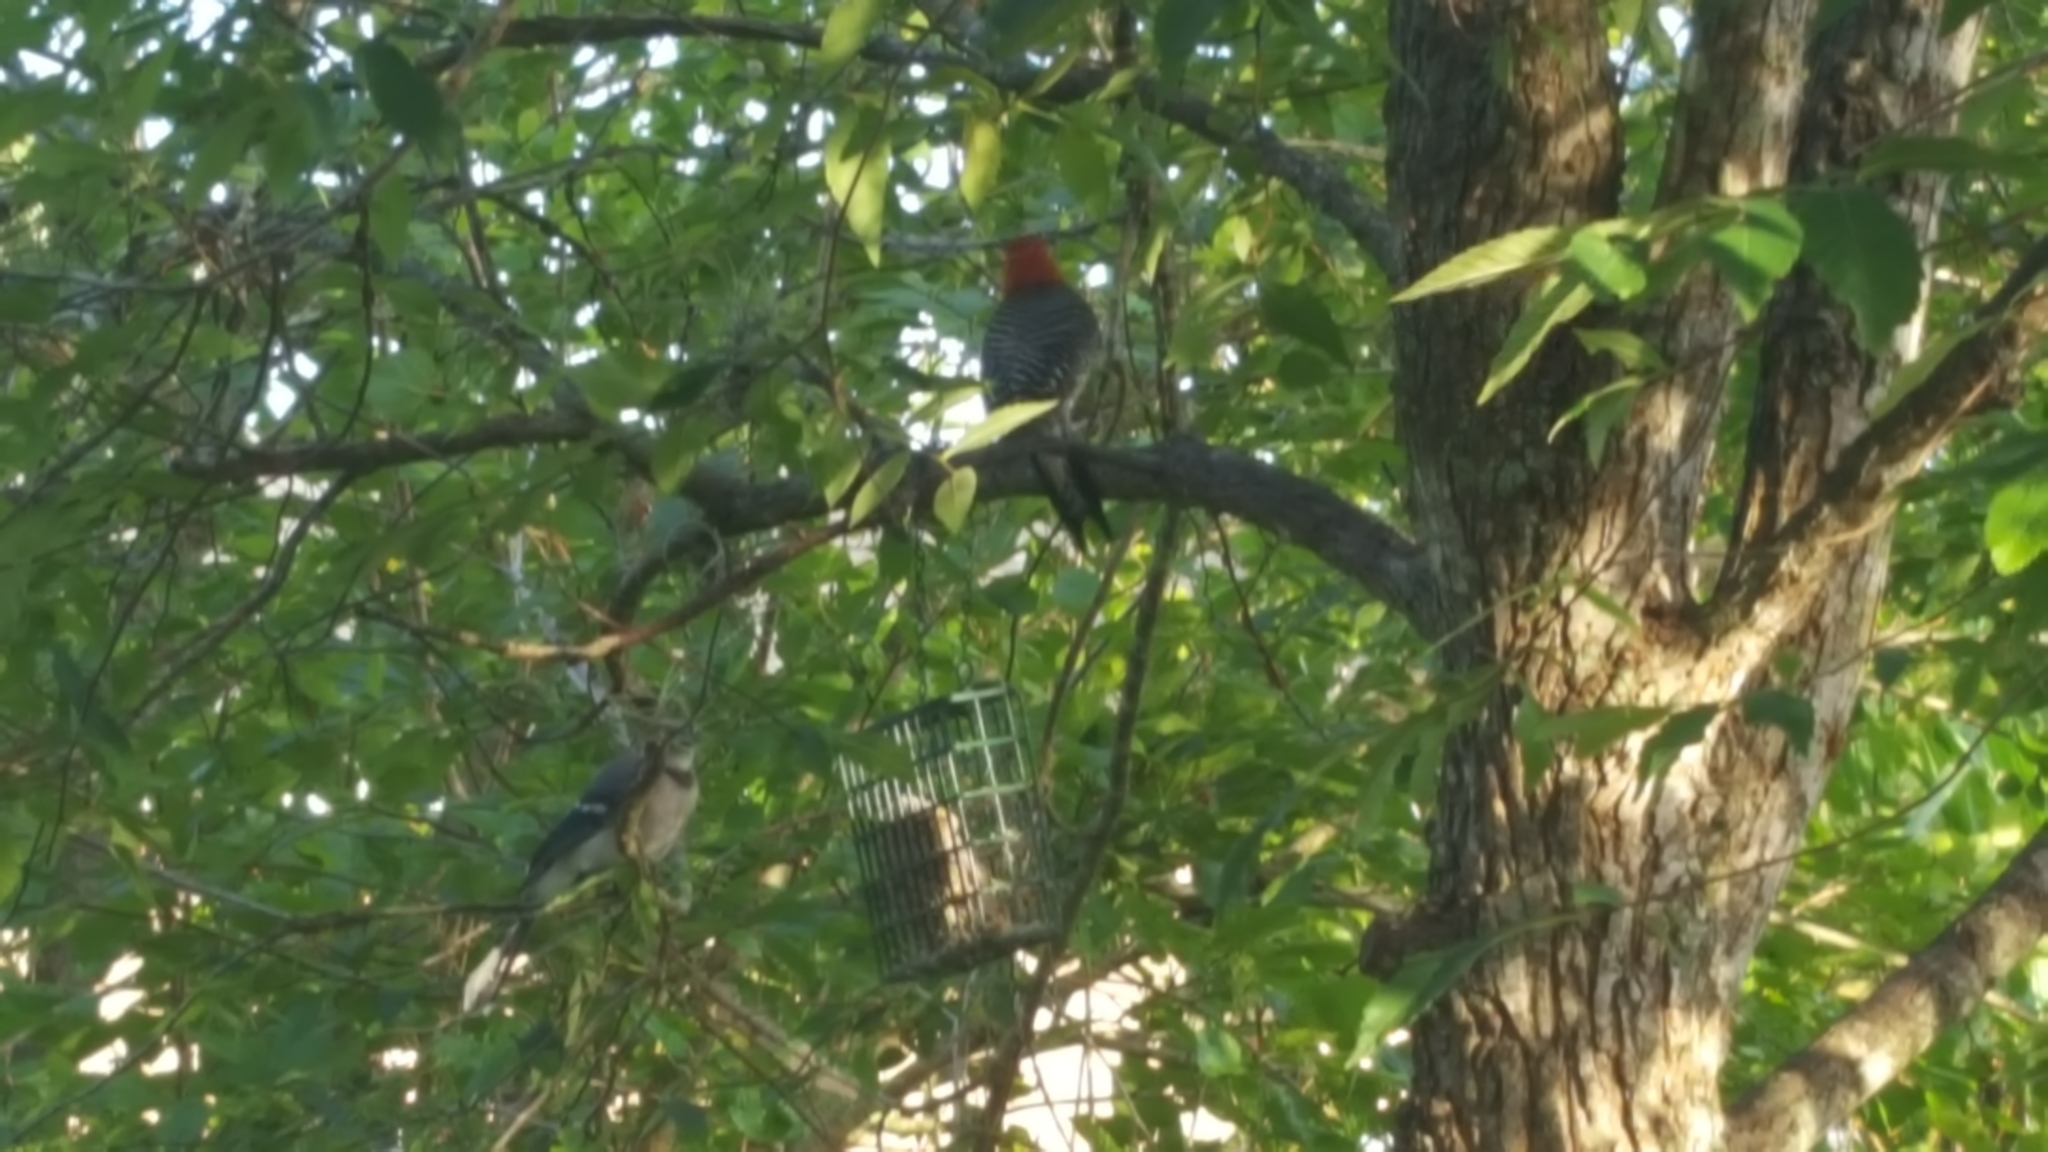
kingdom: Animalia
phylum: Chordata
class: Aves
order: Passeriformes
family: Corvidae
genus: Cyanocitta
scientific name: Cyanocitta cristata
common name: Blue jay
